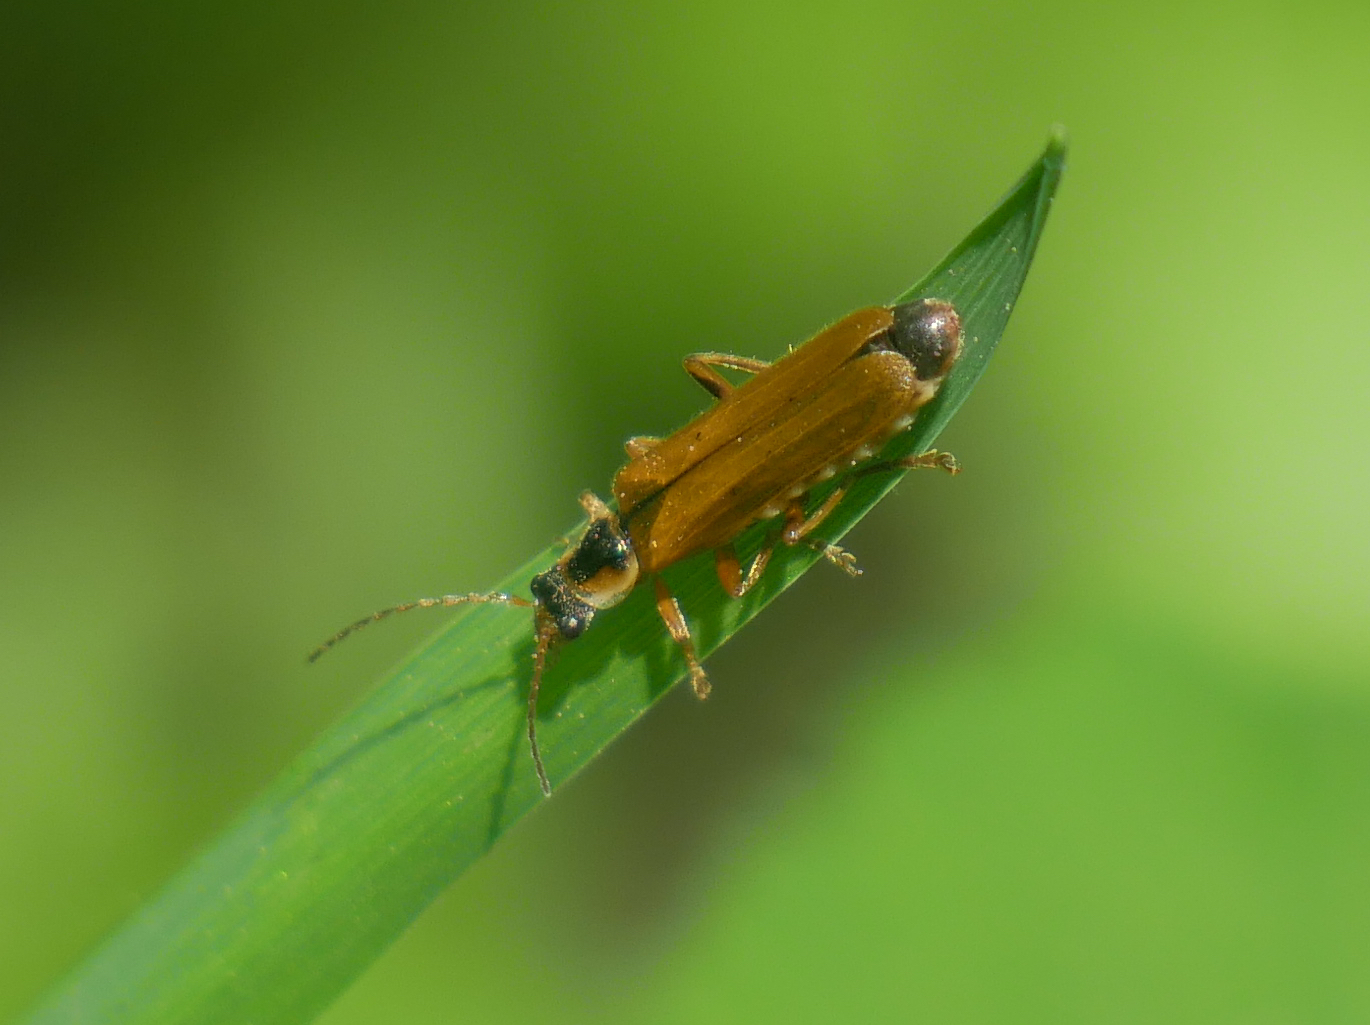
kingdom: Animalia
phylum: Arthropoda
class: Insecta
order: Coleoptera
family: Cantharidae
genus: Cantharis
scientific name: Cantharis decipiens
